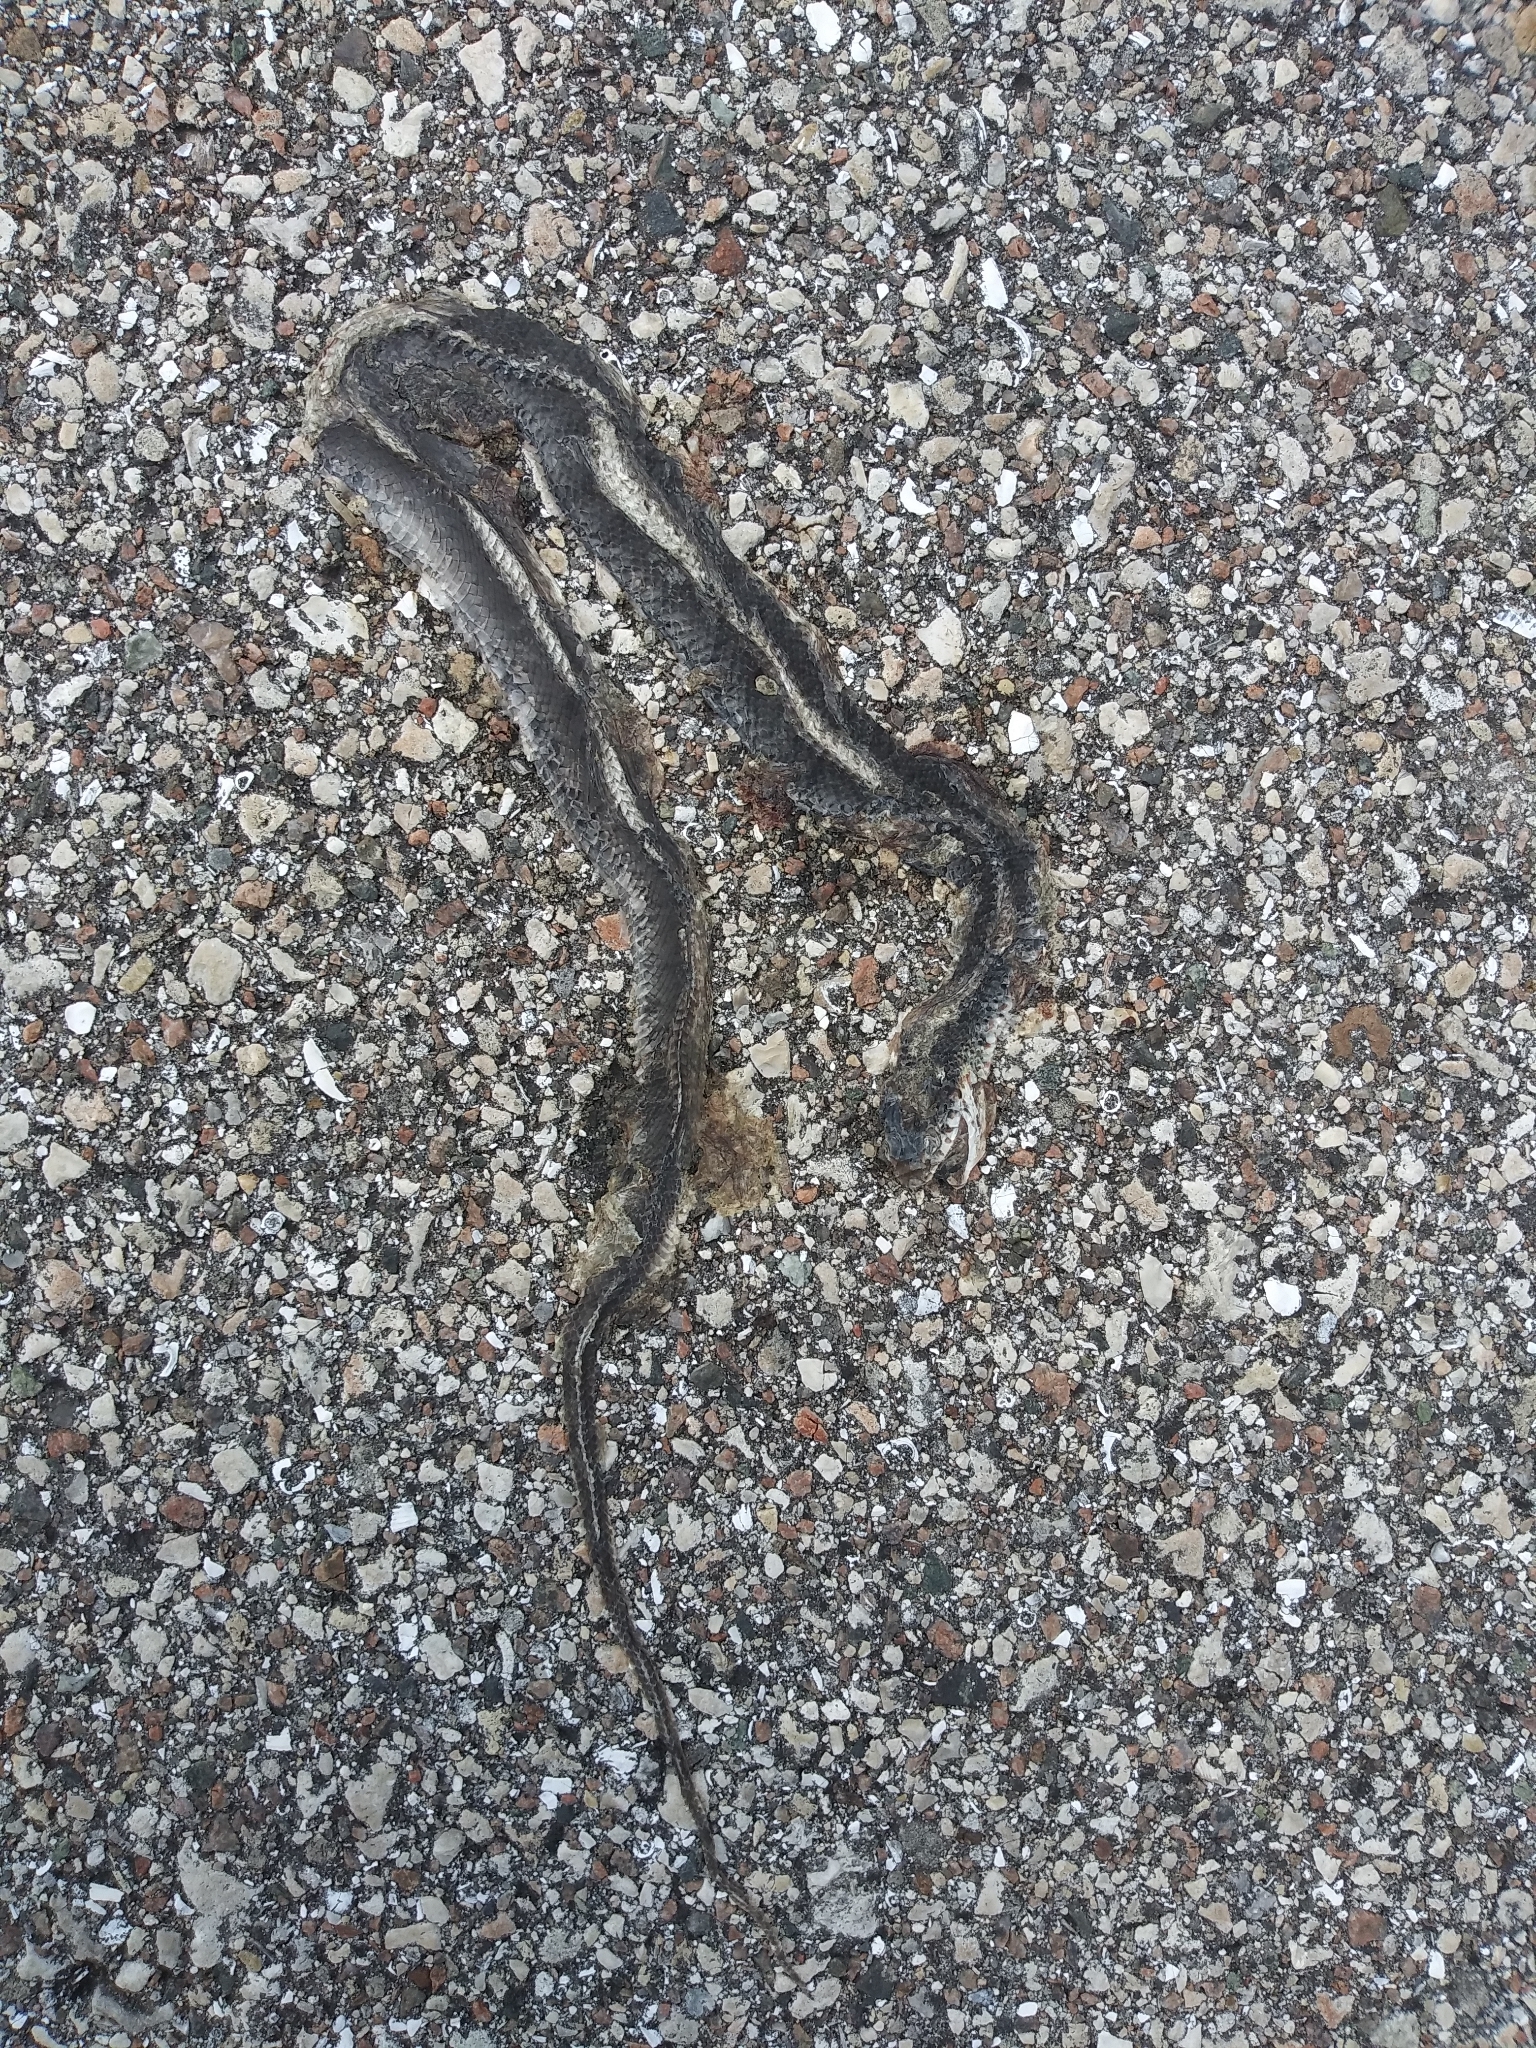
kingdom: Animalia
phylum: Chordata
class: Squamata
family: Colubridae
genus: Coluber
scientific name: Coluber constrictor
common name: Eastern racer
